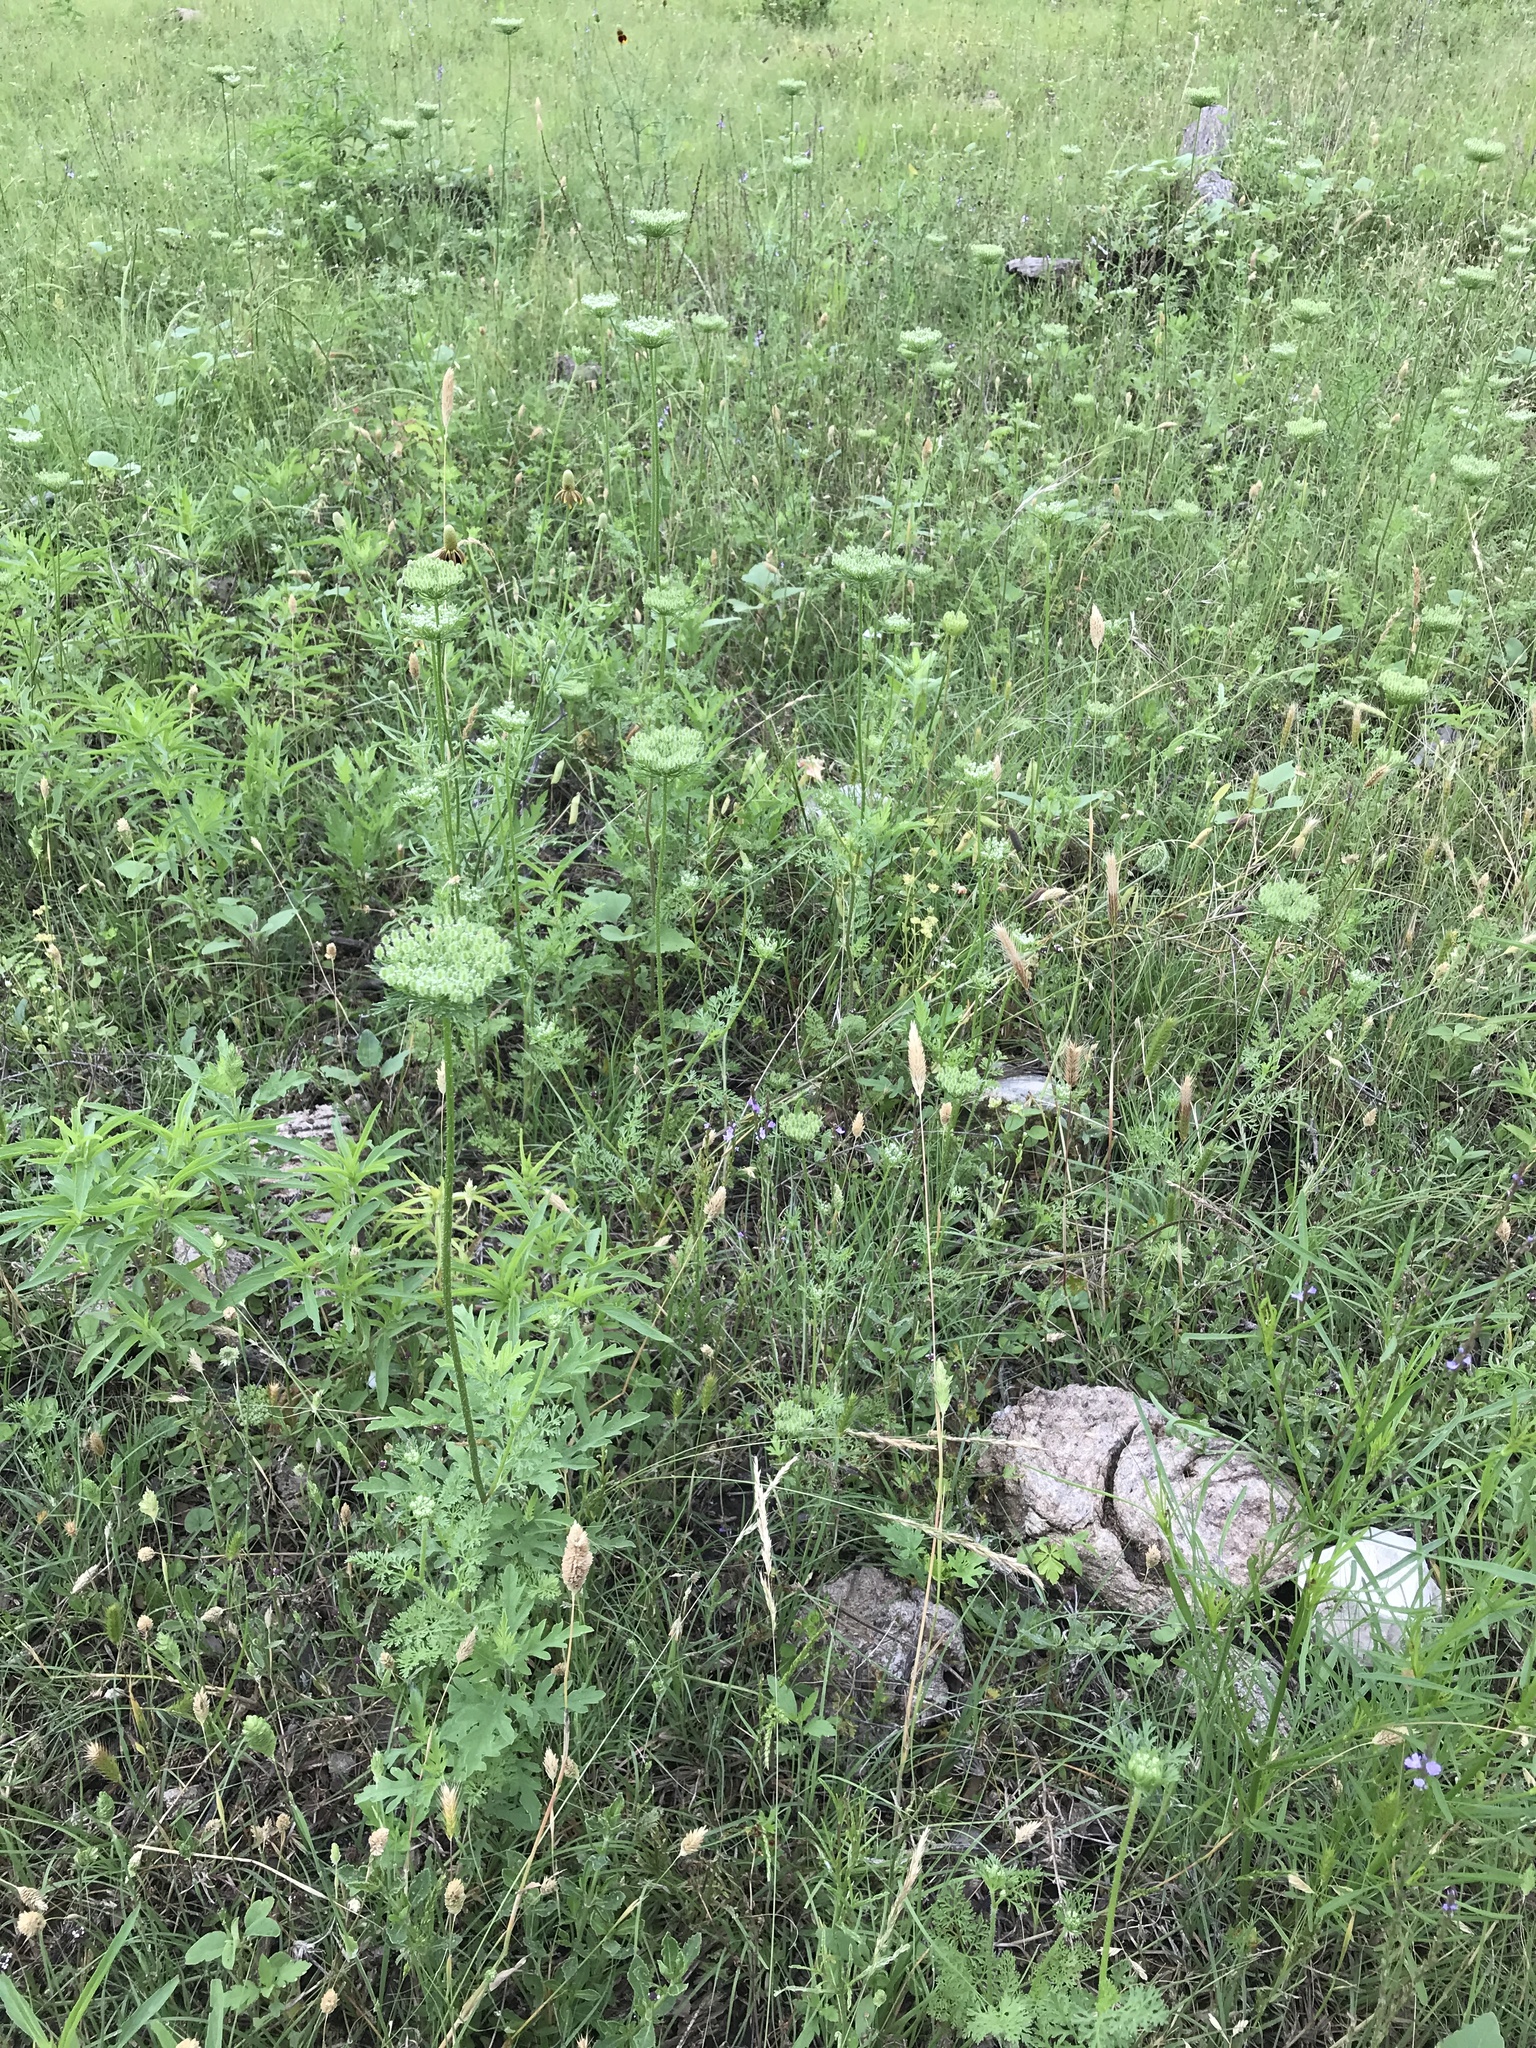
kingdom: Plantae
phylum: Tracheophyta
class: Magnoliopsida
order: Apiales
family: Apiaceae
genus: Daucus
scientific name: Daucus pusillus
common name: Southwest wild carrot
